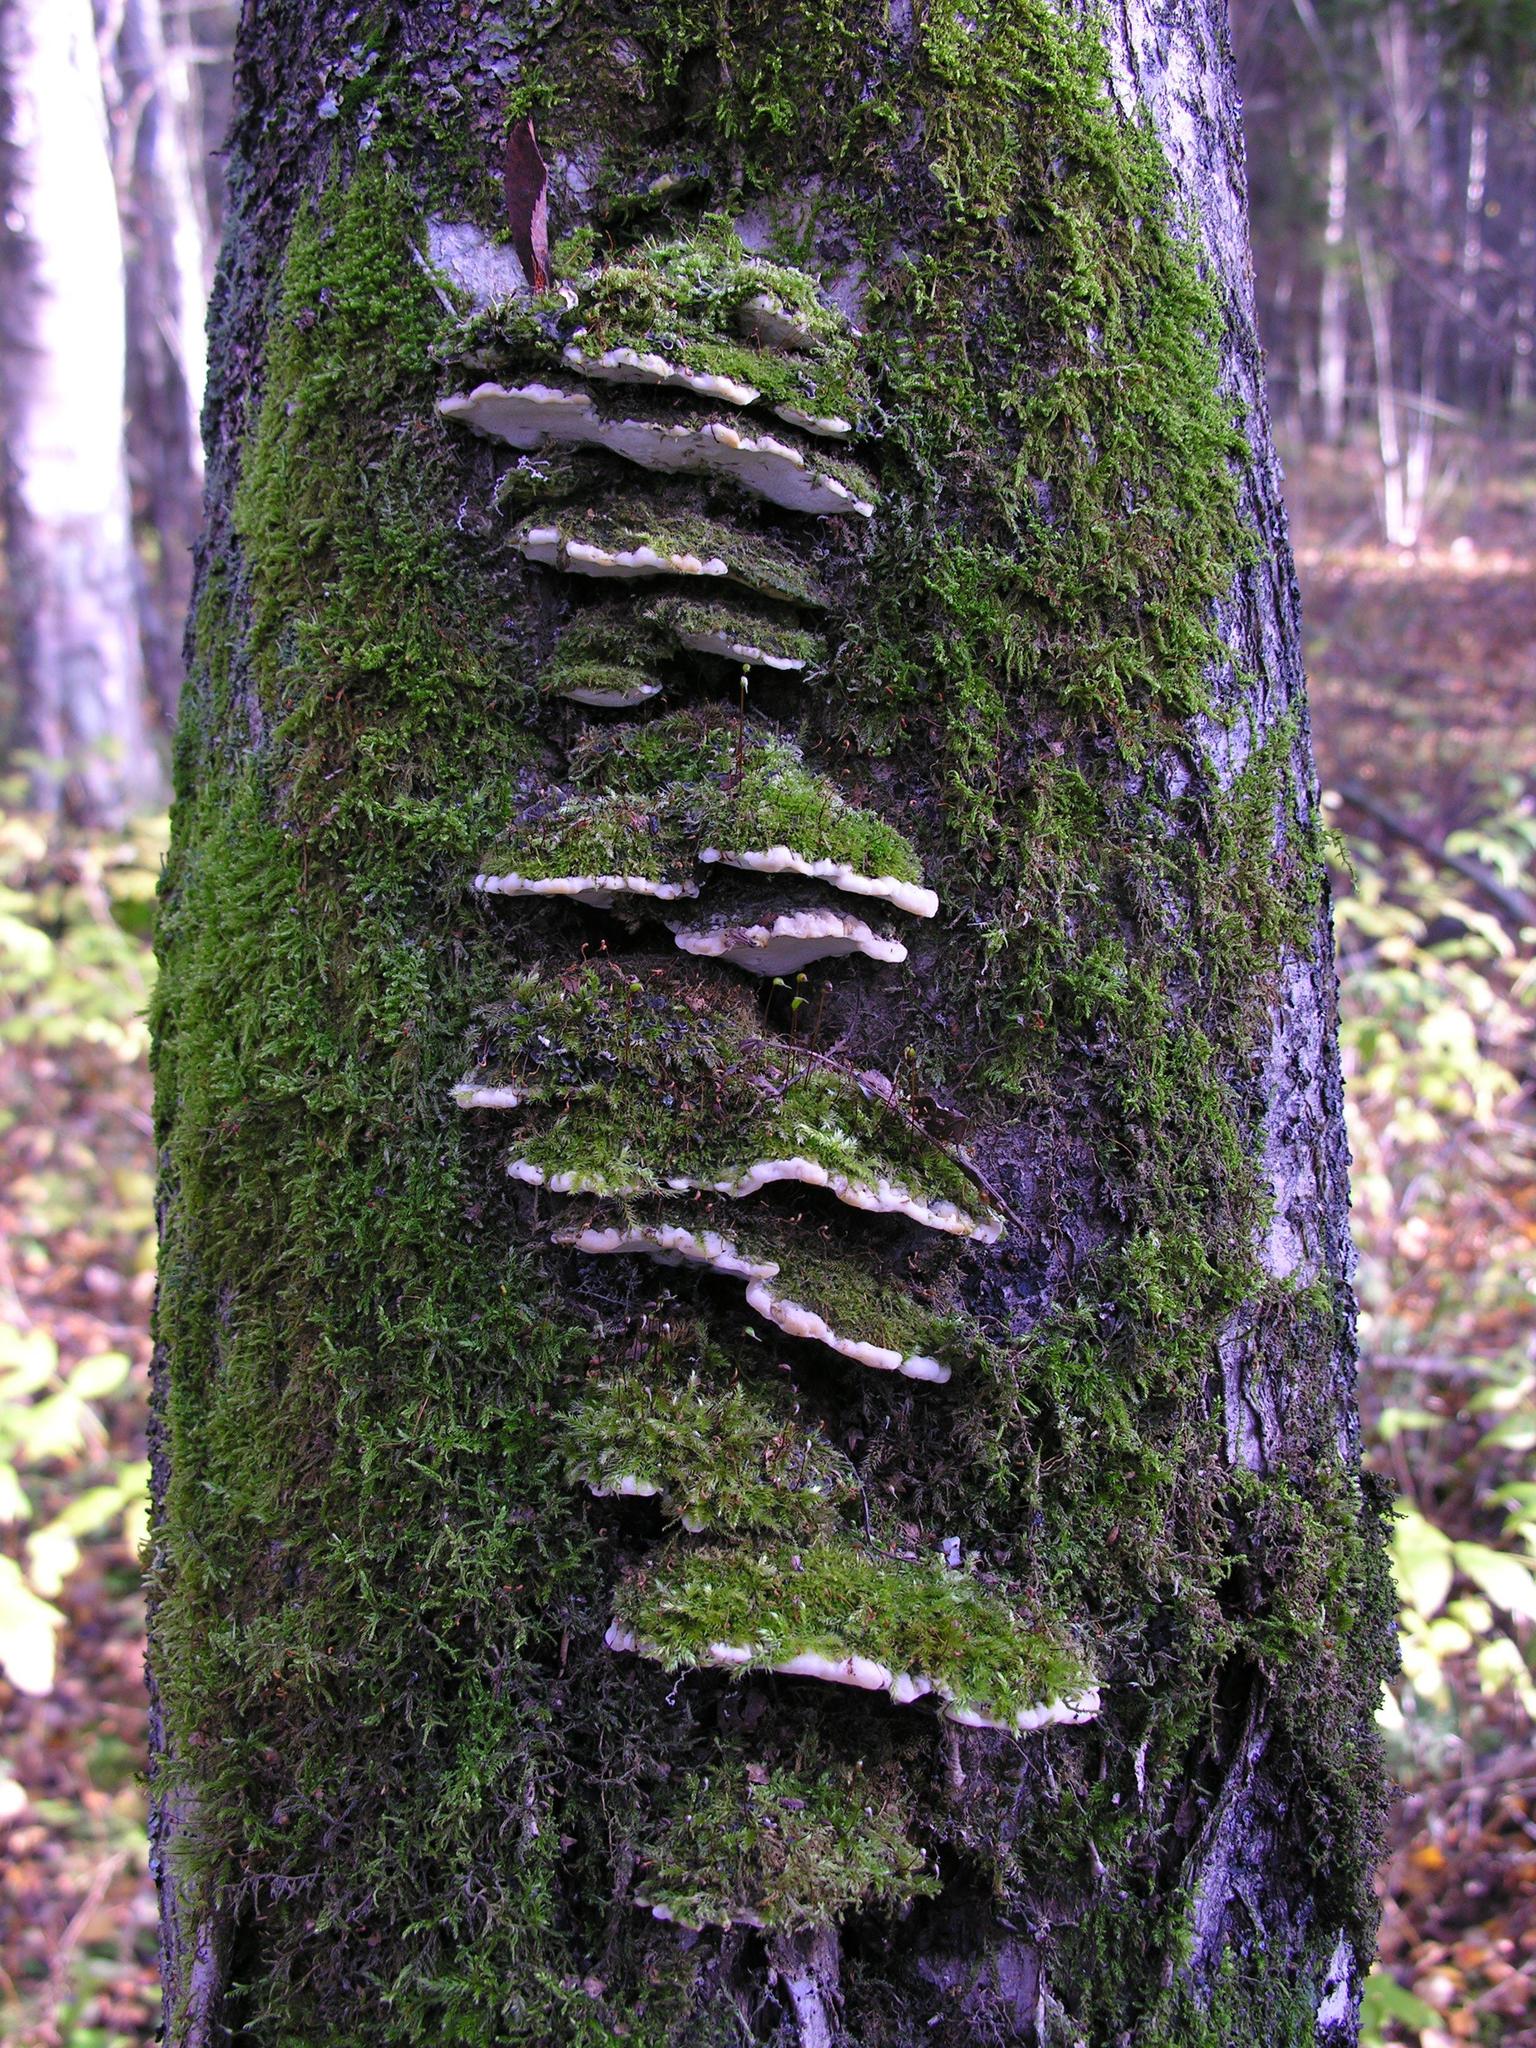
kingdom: Fungi
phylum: Basidiomycota
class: Agaricomycetes
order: Hymenochaetales
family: Oxyporaceae
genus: Oxyporus
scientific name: Oxyporus populinus
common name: Poplar bracket
